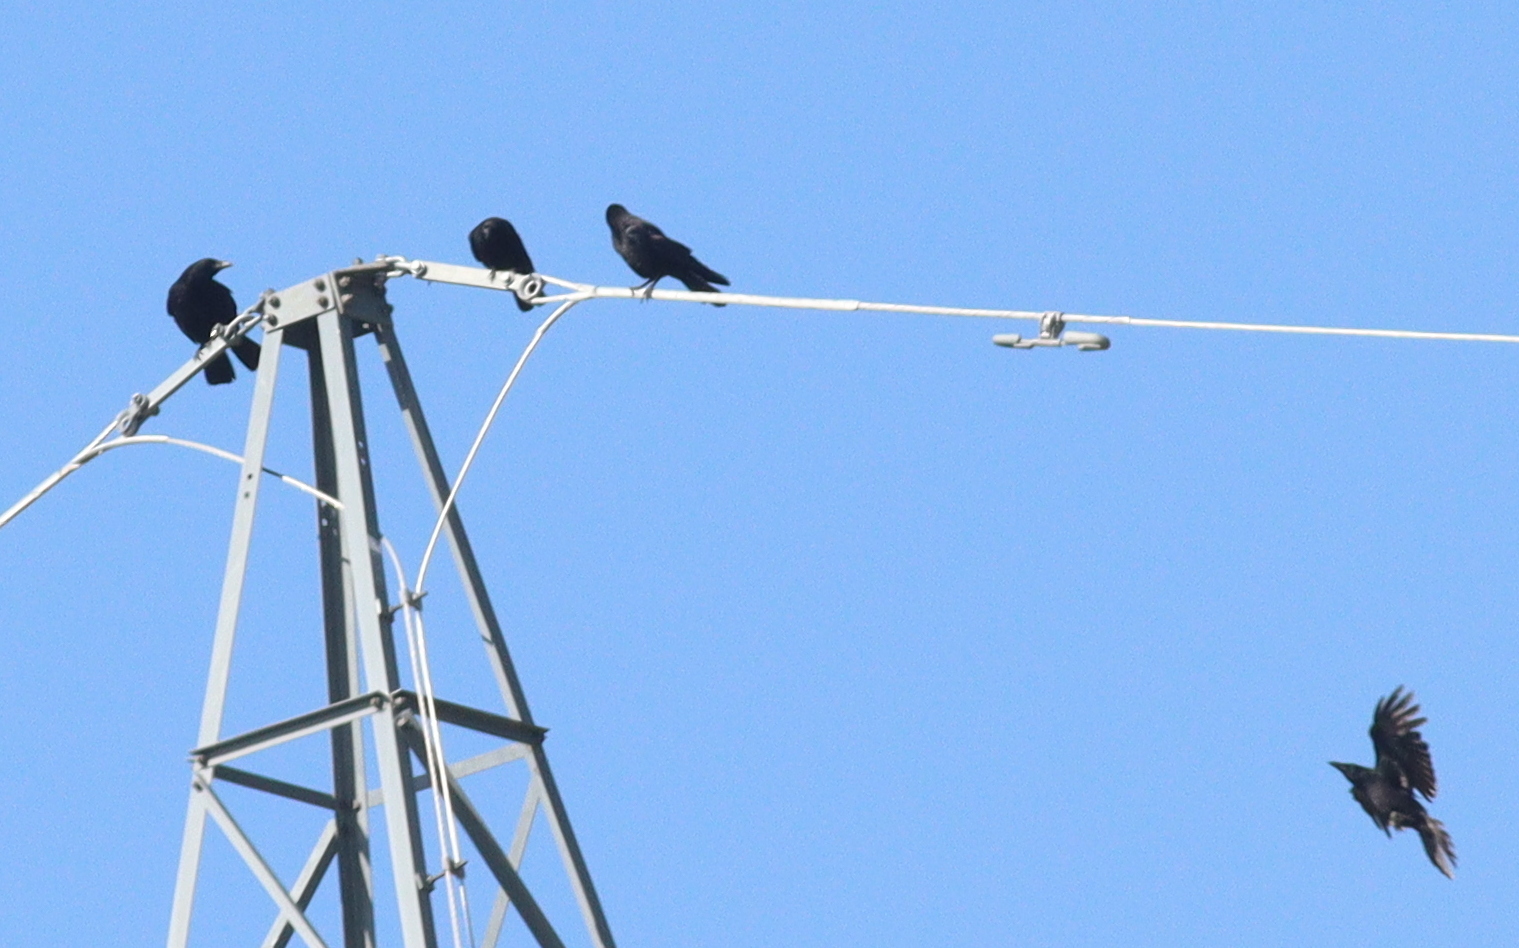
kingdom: Animalia
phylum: Chordata
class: Aves
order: Passeriformes
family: Corvidae
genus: Corvus
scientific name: Corvus corone
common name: Carrion crow
